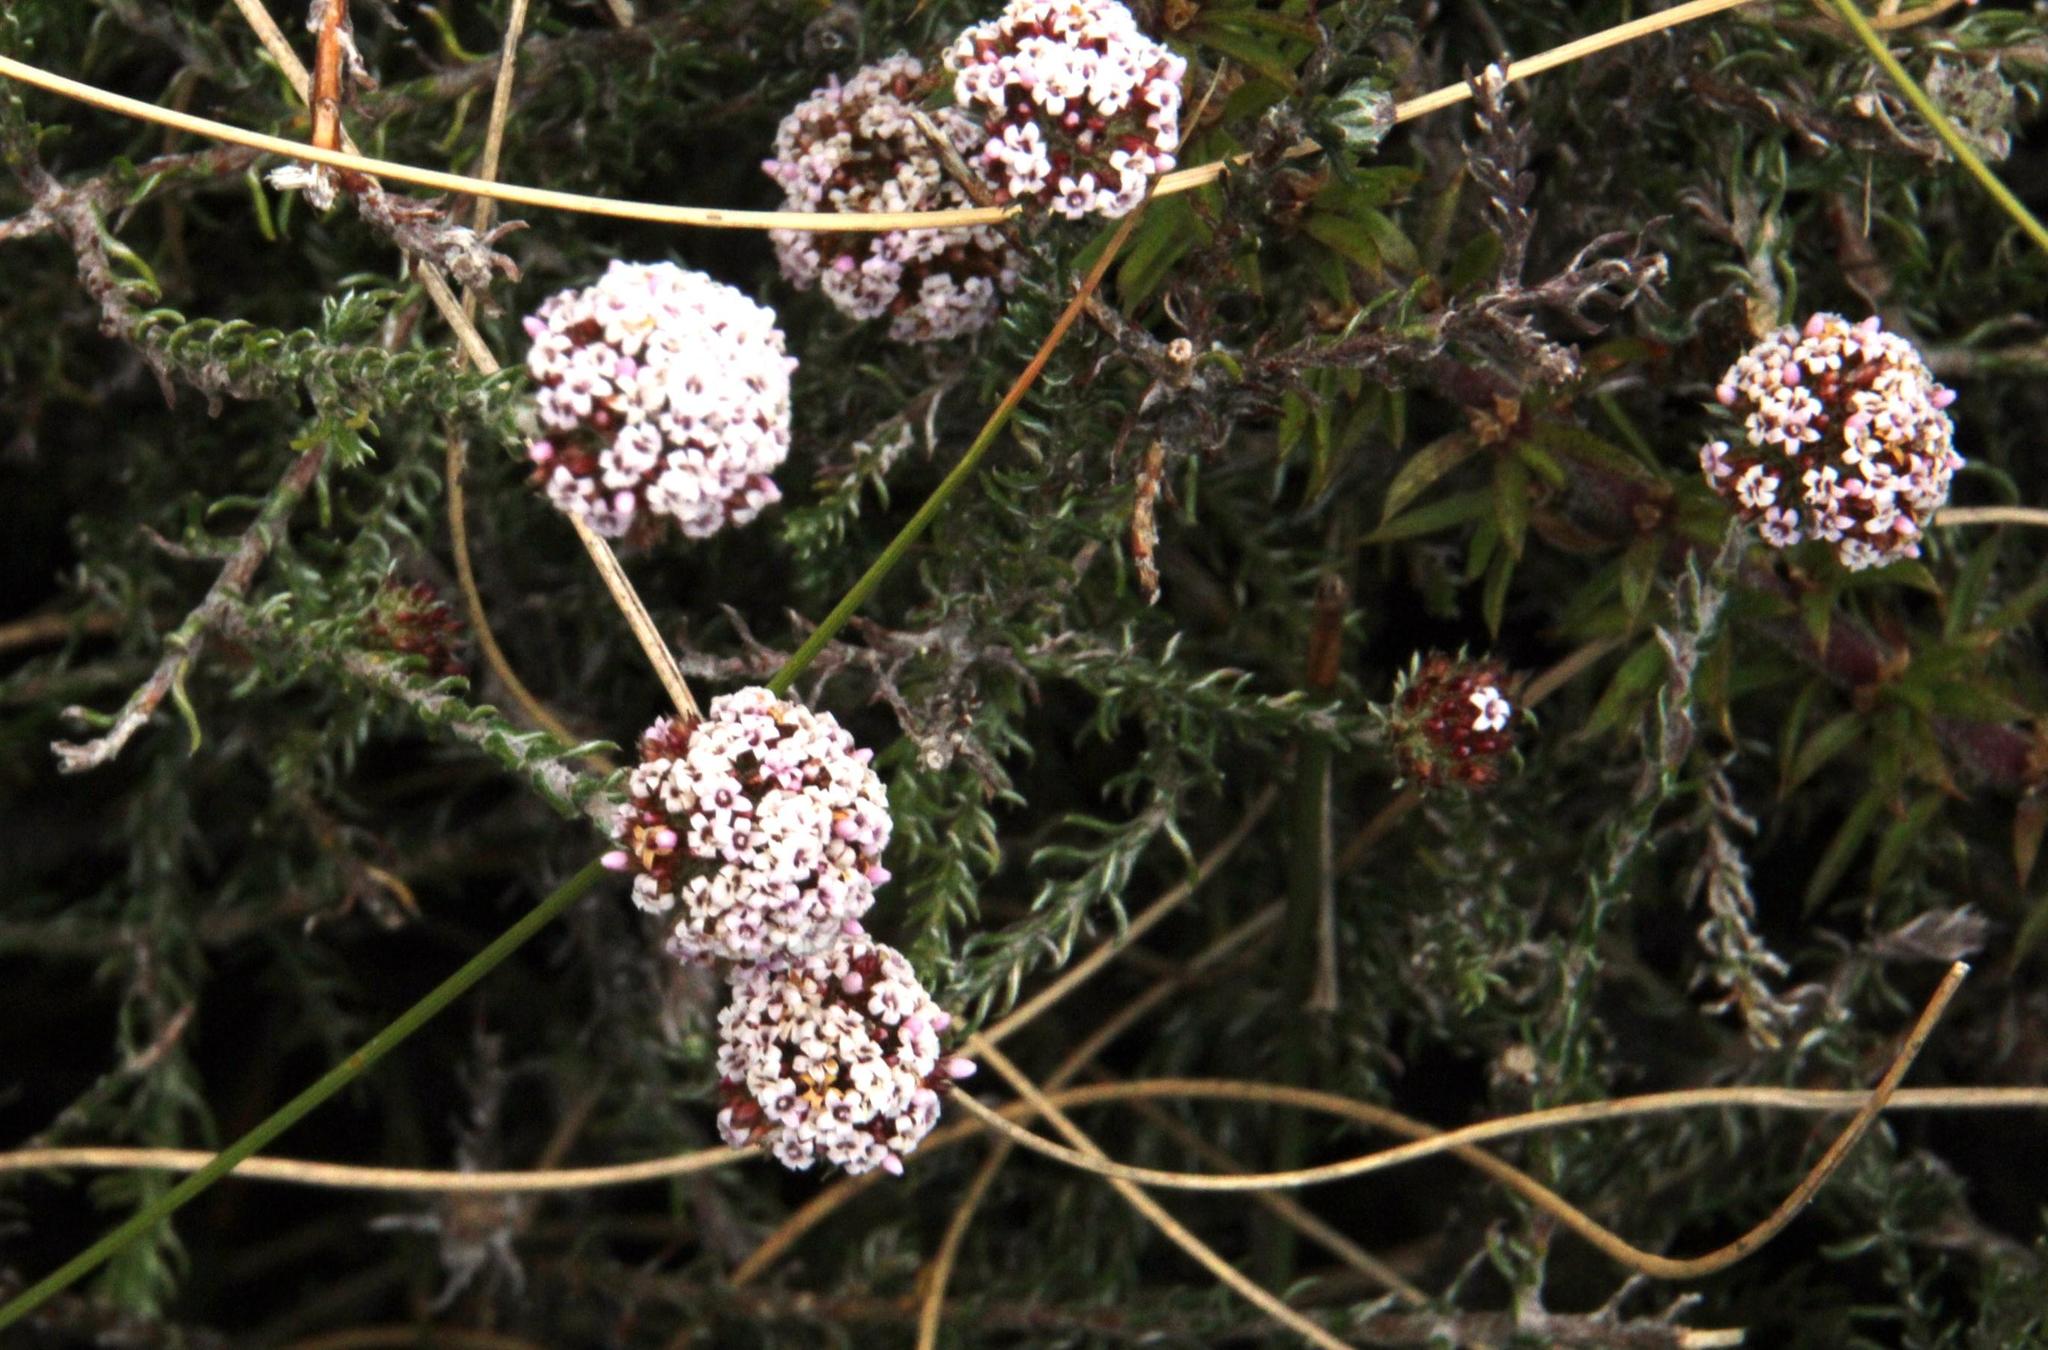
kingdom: Plantae
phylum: Tracheophyta
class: Magnoliopsida
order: Asterales
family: Asteraceae
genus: Stoebe
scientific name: Stoebe capitata
